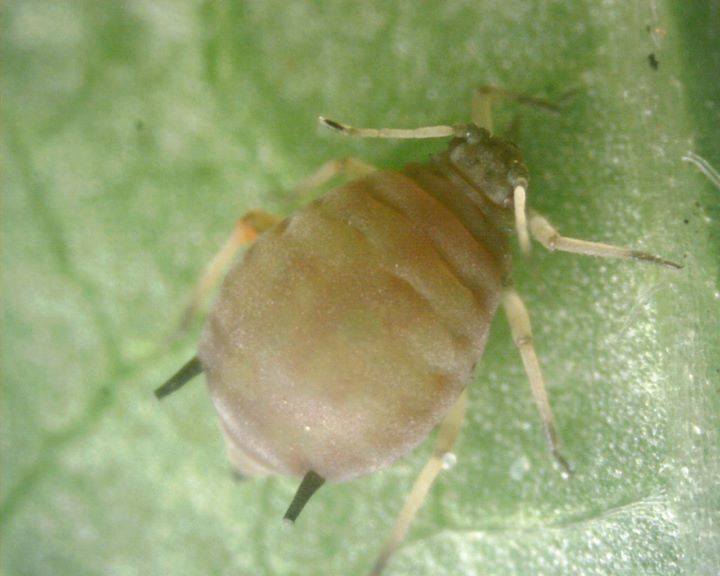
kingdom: Animalia
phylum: Arthropoda
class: Insecta
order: Hemiptera
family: Aphididae
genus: Aphis
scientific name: Aphis craccivora
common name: Cowpea aphid
